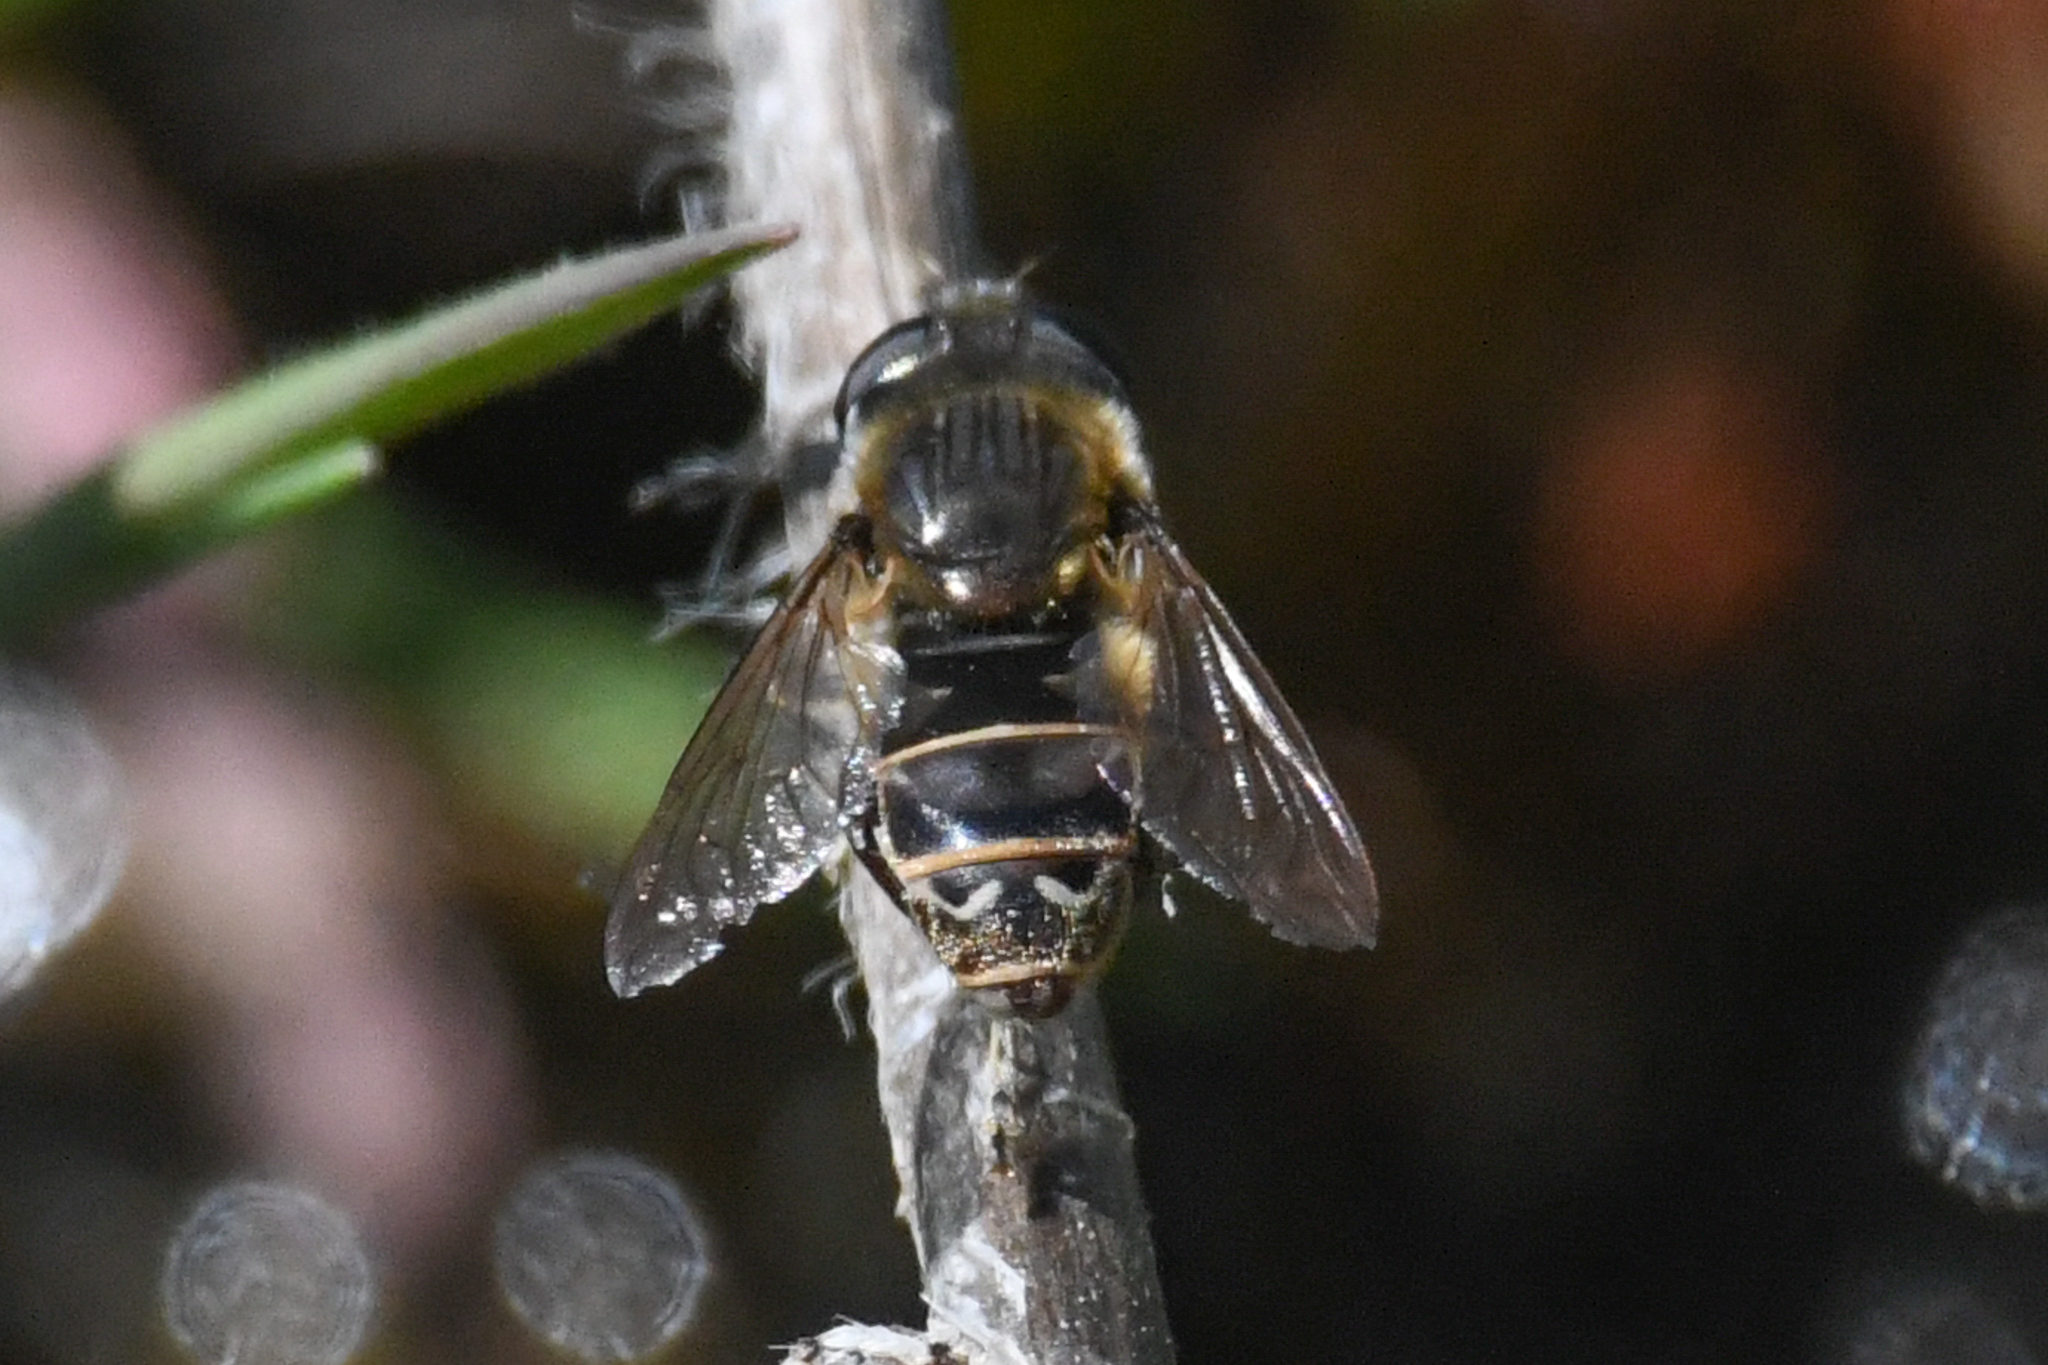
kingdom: Animalia
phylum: Arthropoda
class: Insecta
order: Diptera
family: Syrphidae
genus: Asemosyrphus
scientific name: Asemosyrphus polygrammus
